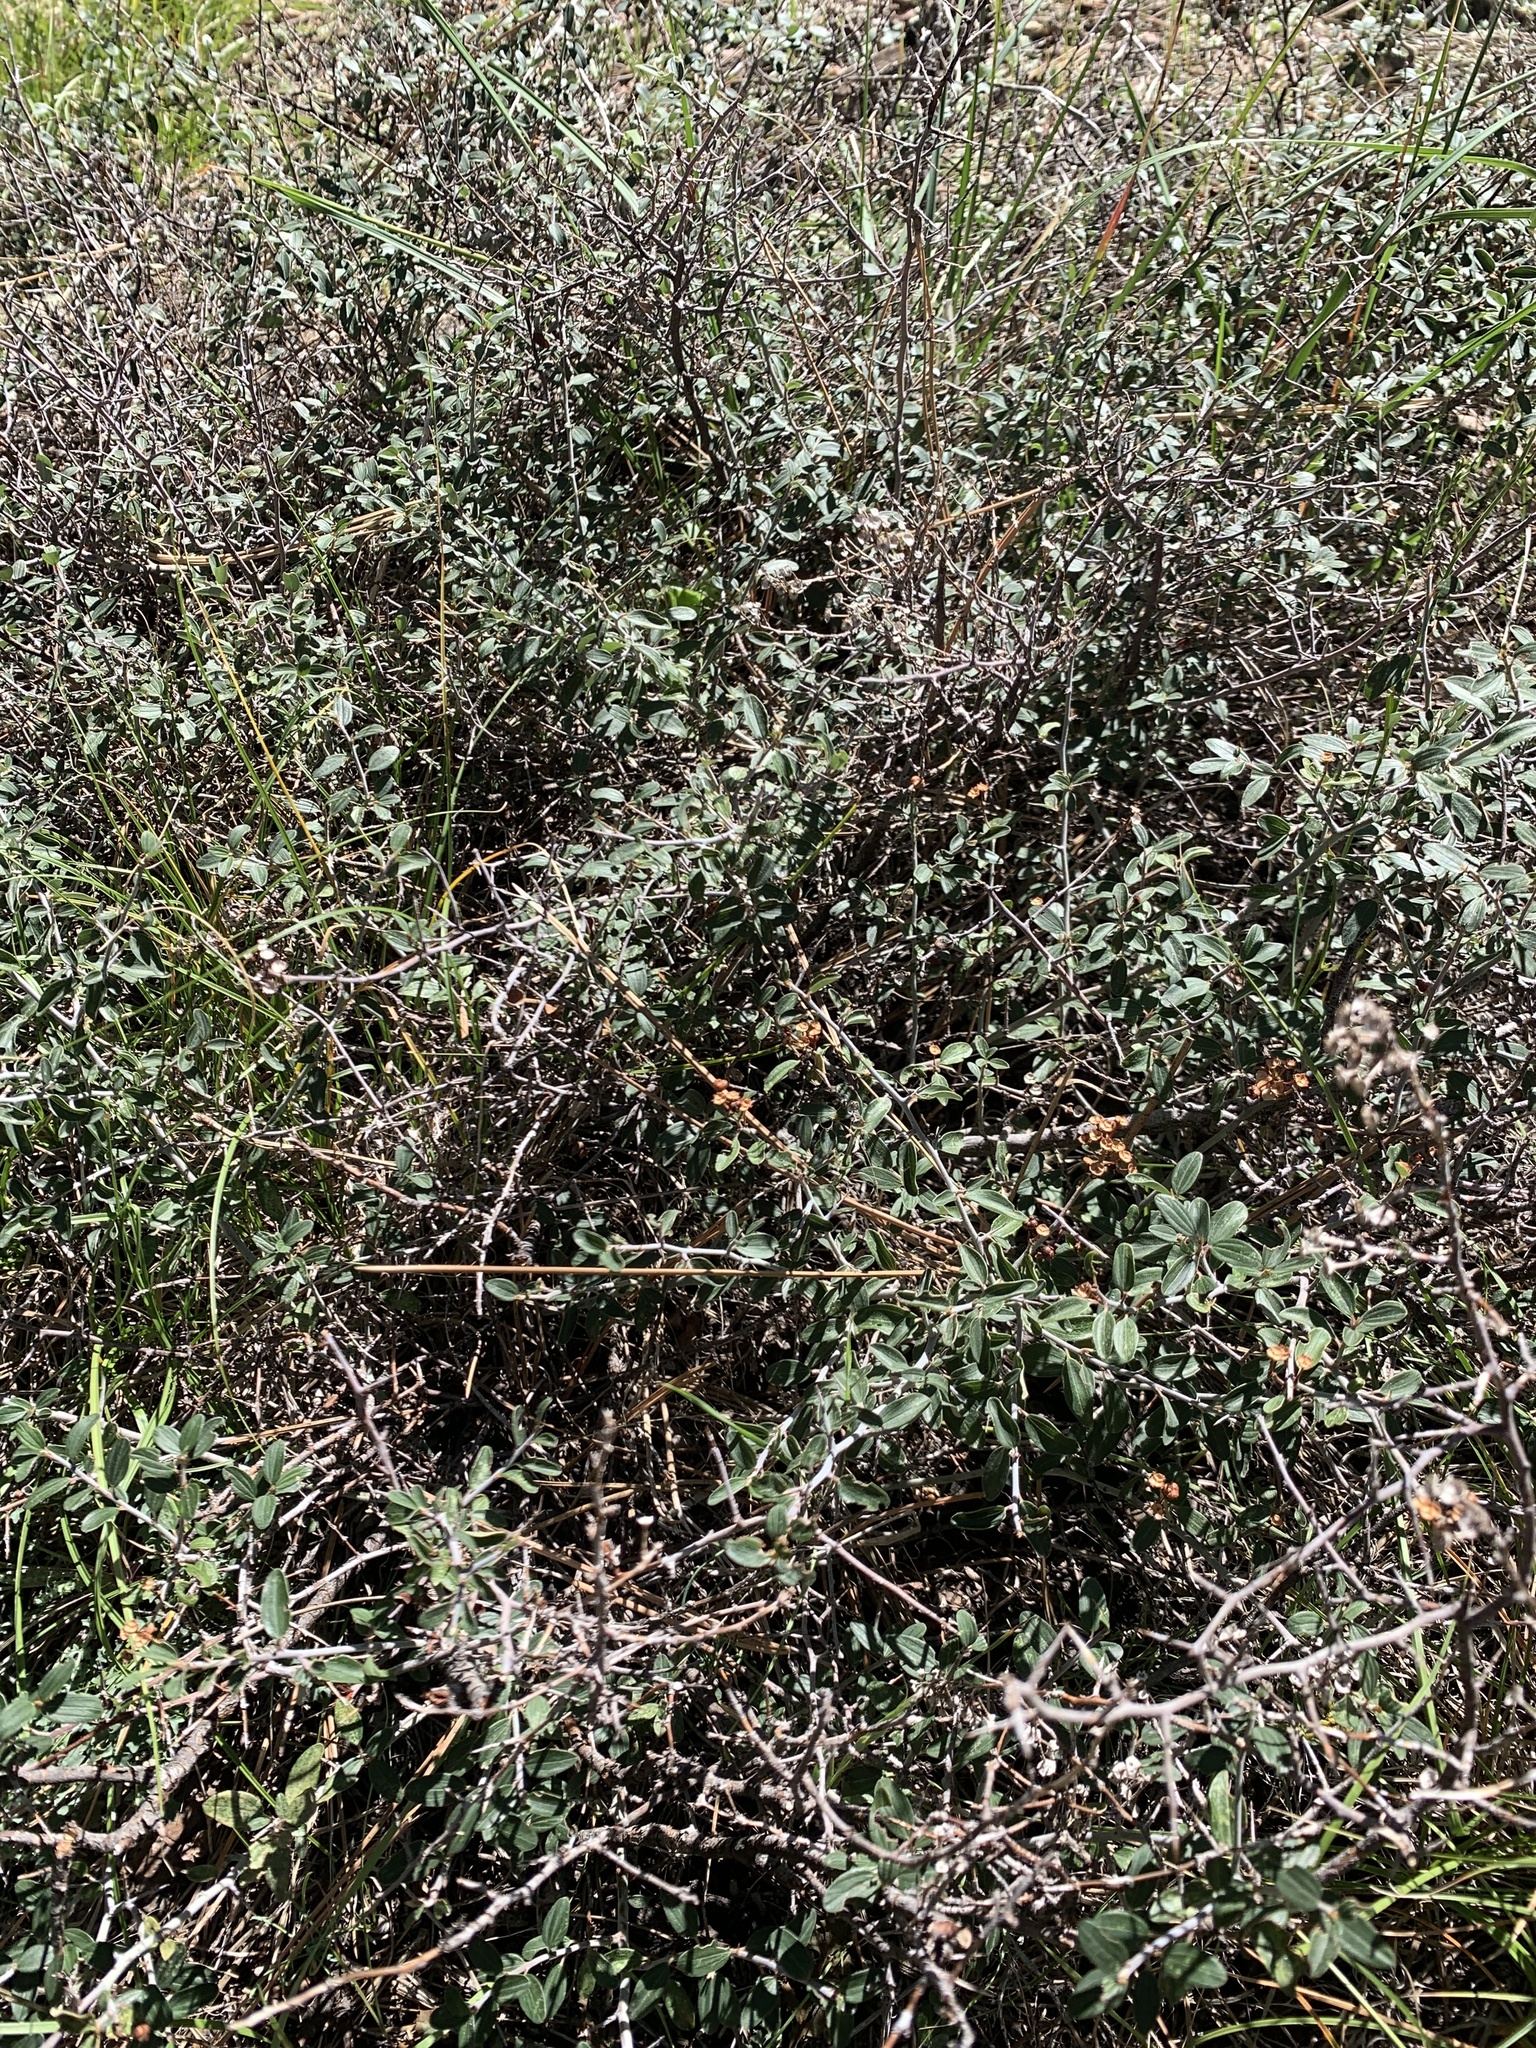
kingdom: Plantae
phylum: Tracheophyta
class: Magnoliopsida
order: Rosales
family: Rhamnaceae
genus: Ceanothus
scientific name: Ceanothus fendleri
